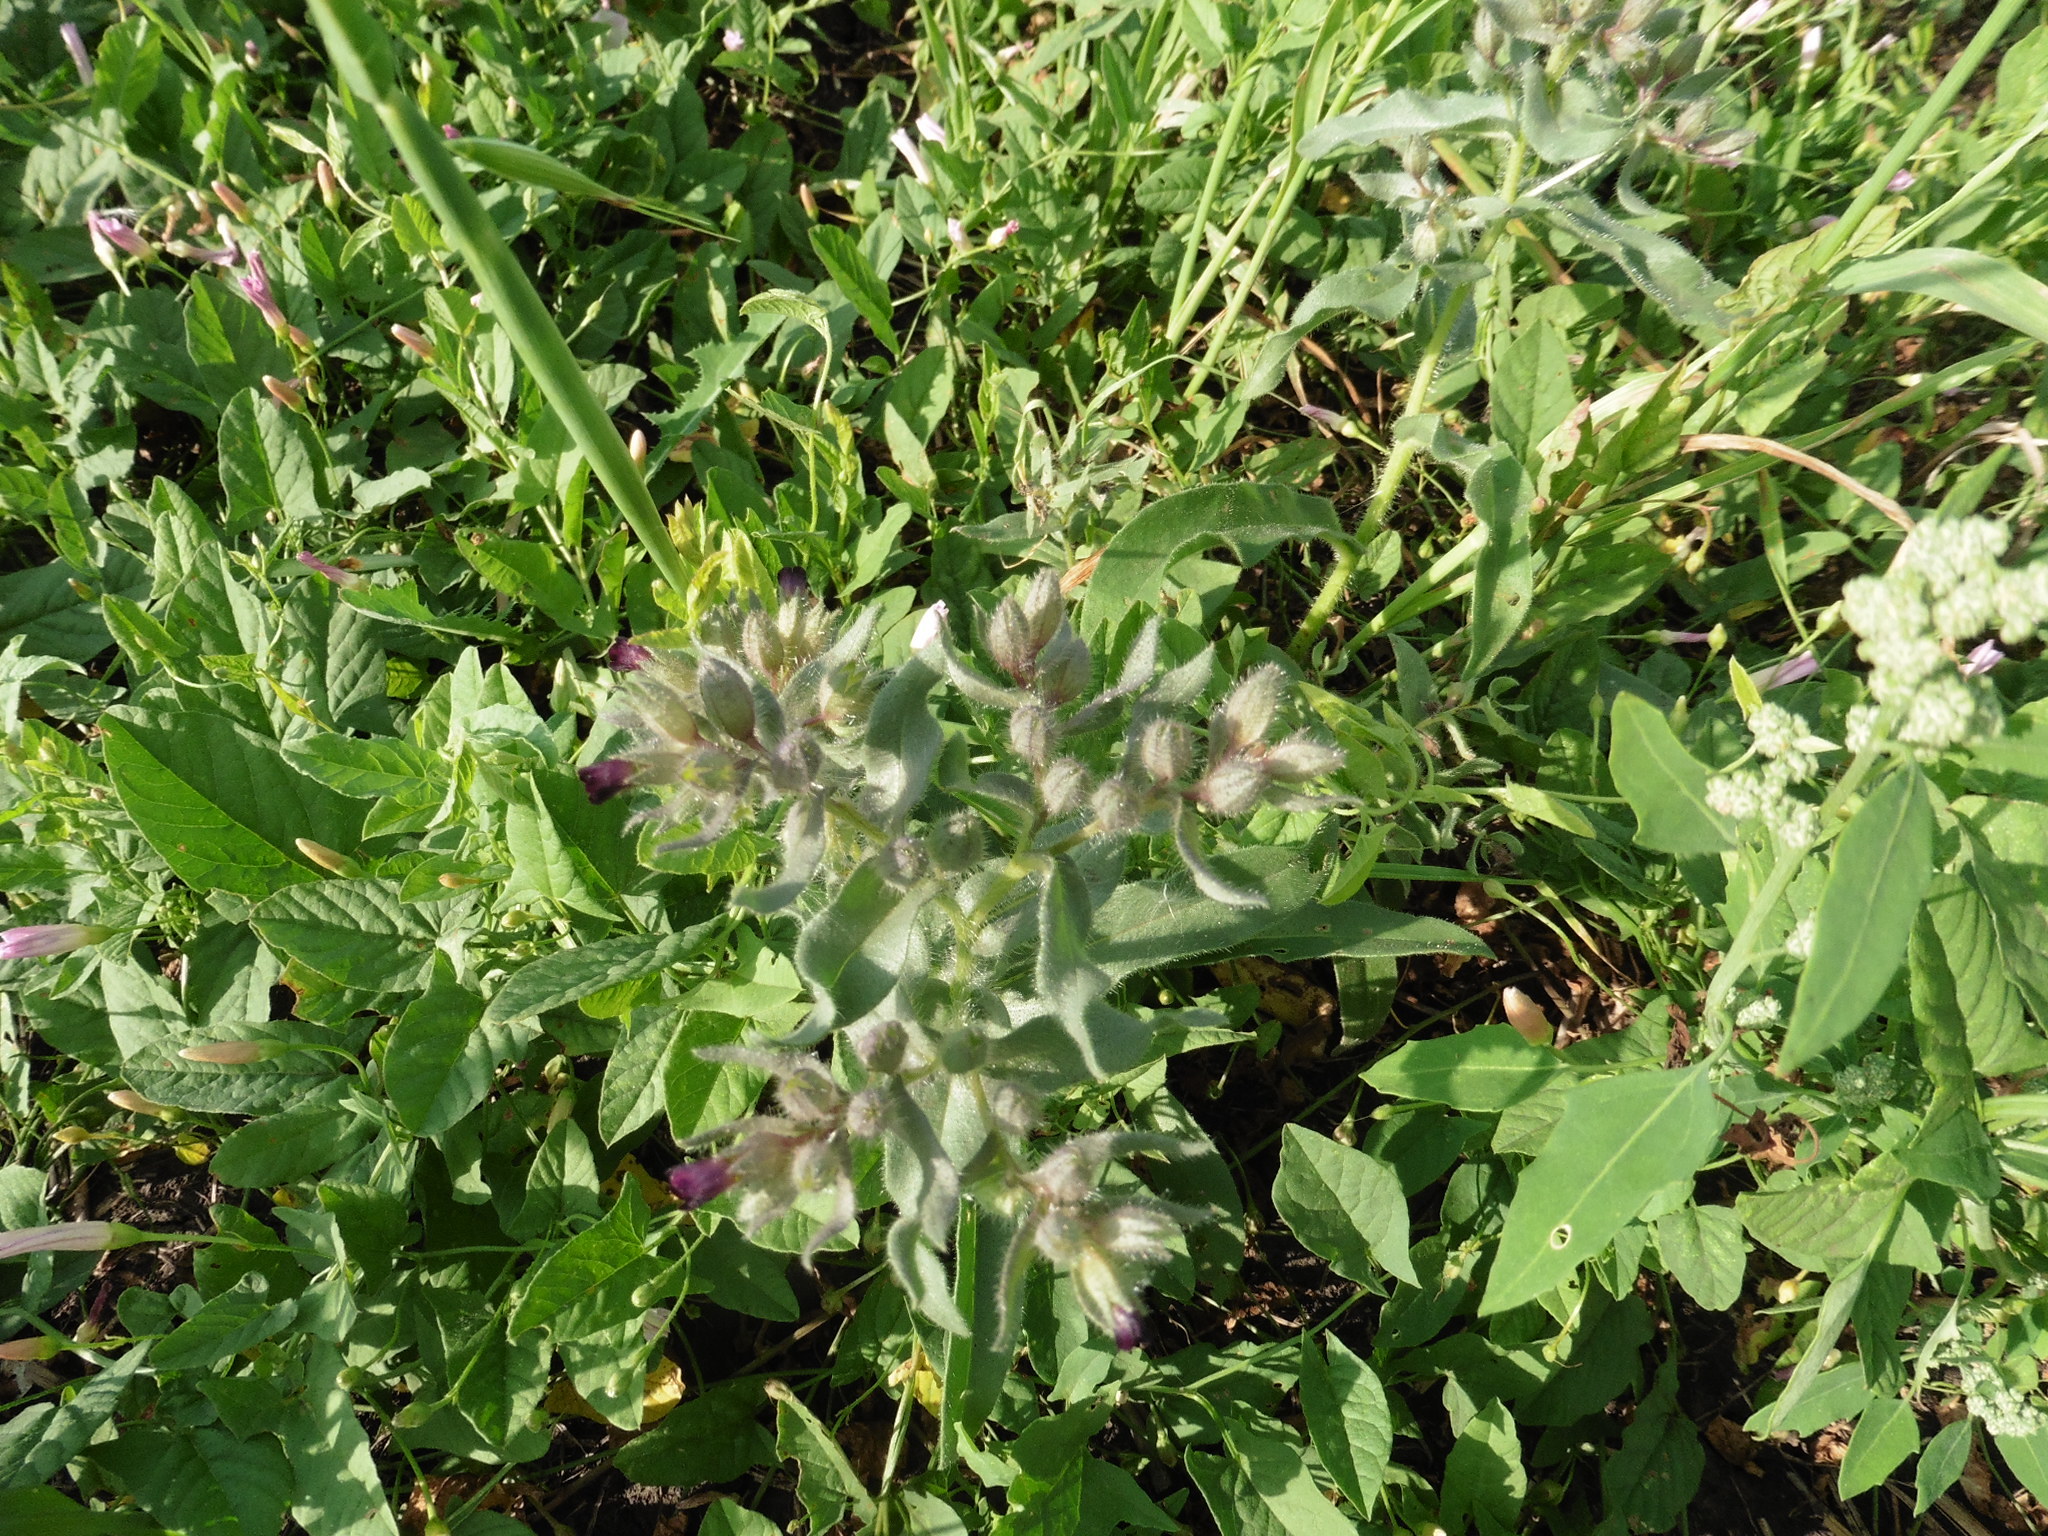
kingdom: Plantae
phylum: Tracheophyta
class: Magnoliopsida
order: Boraginales
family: Boraginaceae
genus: Nonea
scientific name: Nonea pulla
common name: Brown nonea
